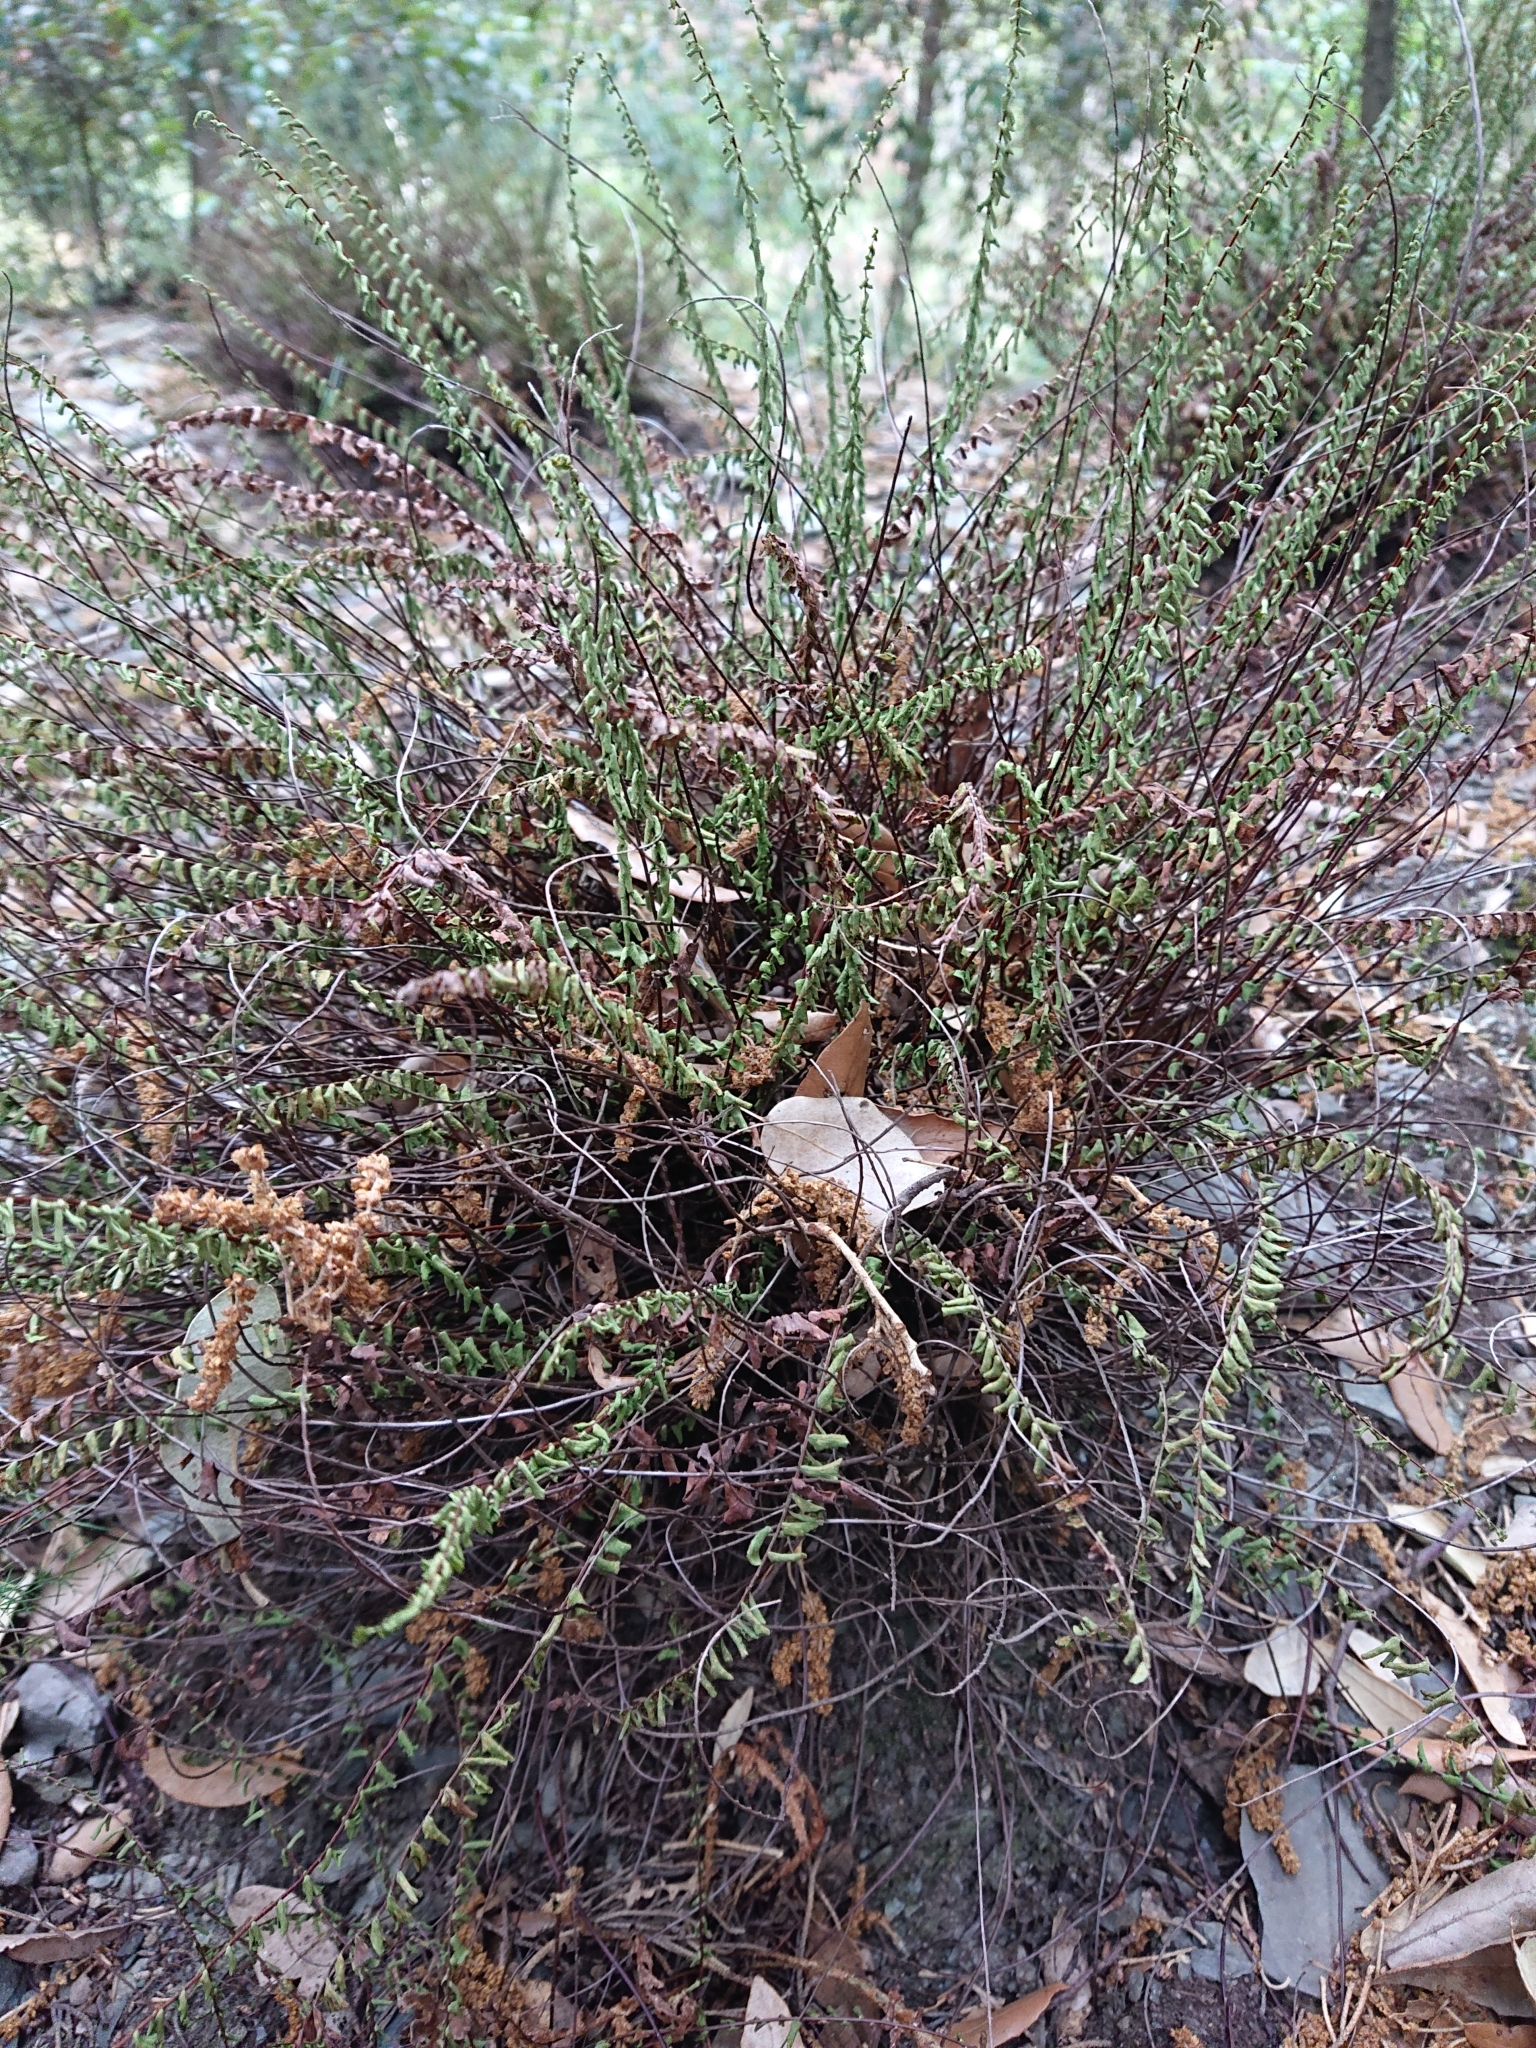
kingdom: Plantae
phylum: Tracheophyta
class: Polypodiopsida
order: Polypodiales
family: Aspleniaceae
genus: Asplenium
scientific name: Asplenium trichomanes
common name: Maidenhair spleenwort
